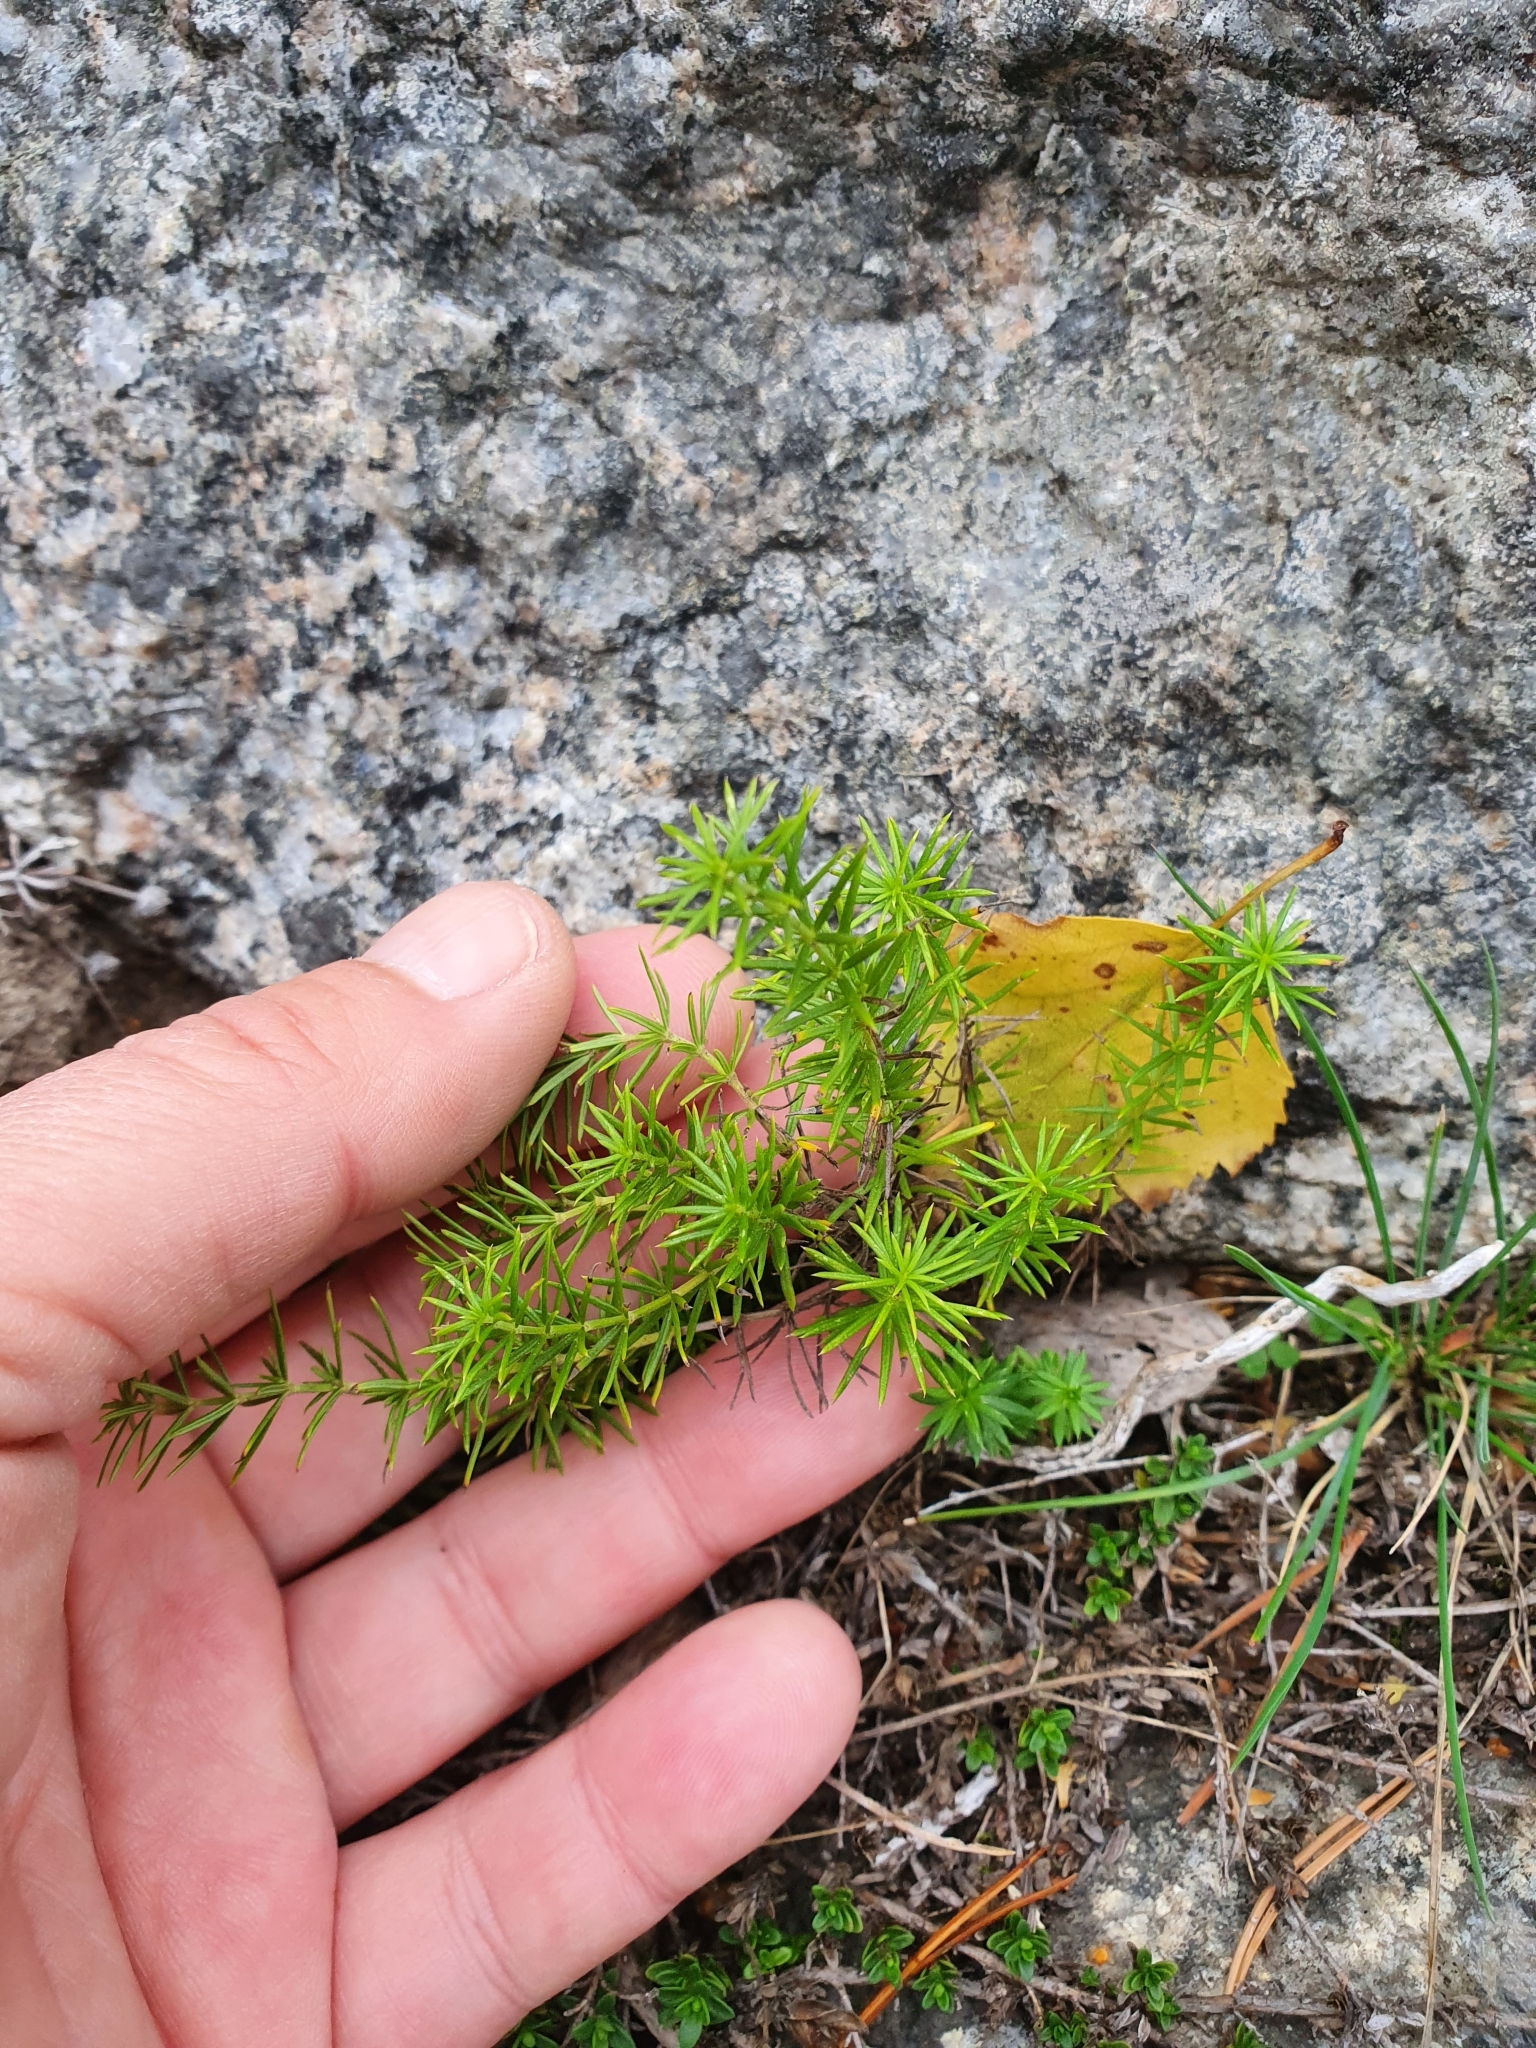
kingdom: Plantae
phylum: Tracheophyta
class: Magnoliopsida
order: Gentianales
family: Rubiaceae
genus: Galium
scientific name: Galium verum
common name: Lady's bedstraw
